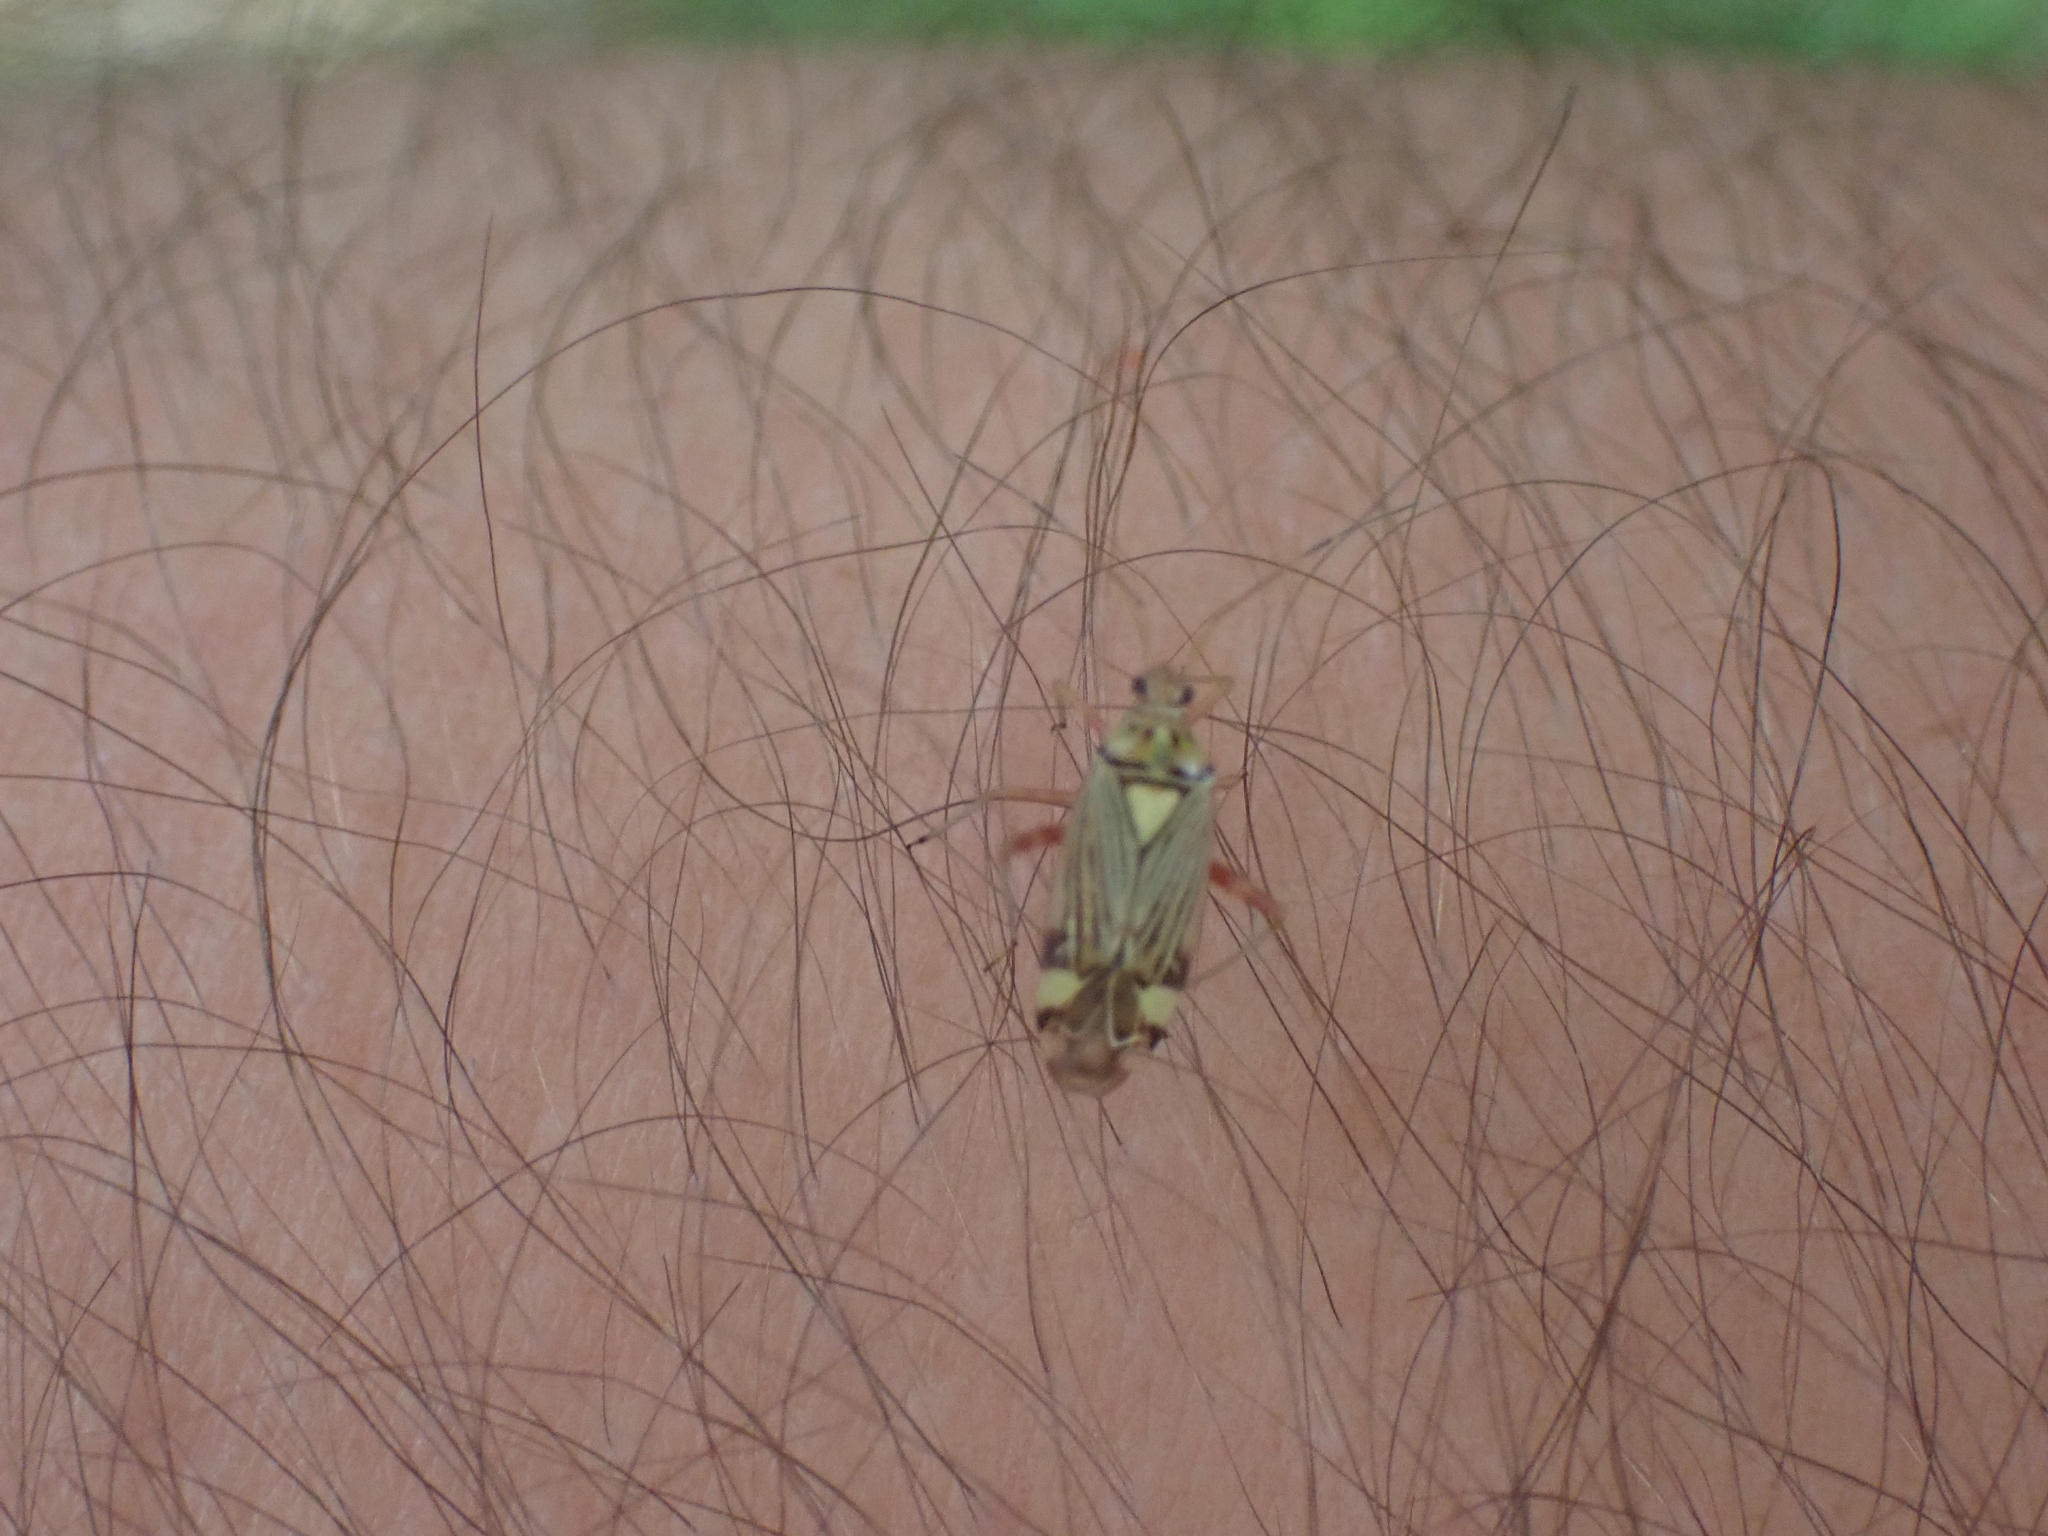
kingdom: Animalia
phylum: Arthropoda
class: Insecta
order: Hemiptera
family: Miridae
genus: Rhabdomiris
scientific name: Rhabdomiris striatellus
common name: Plant bug
